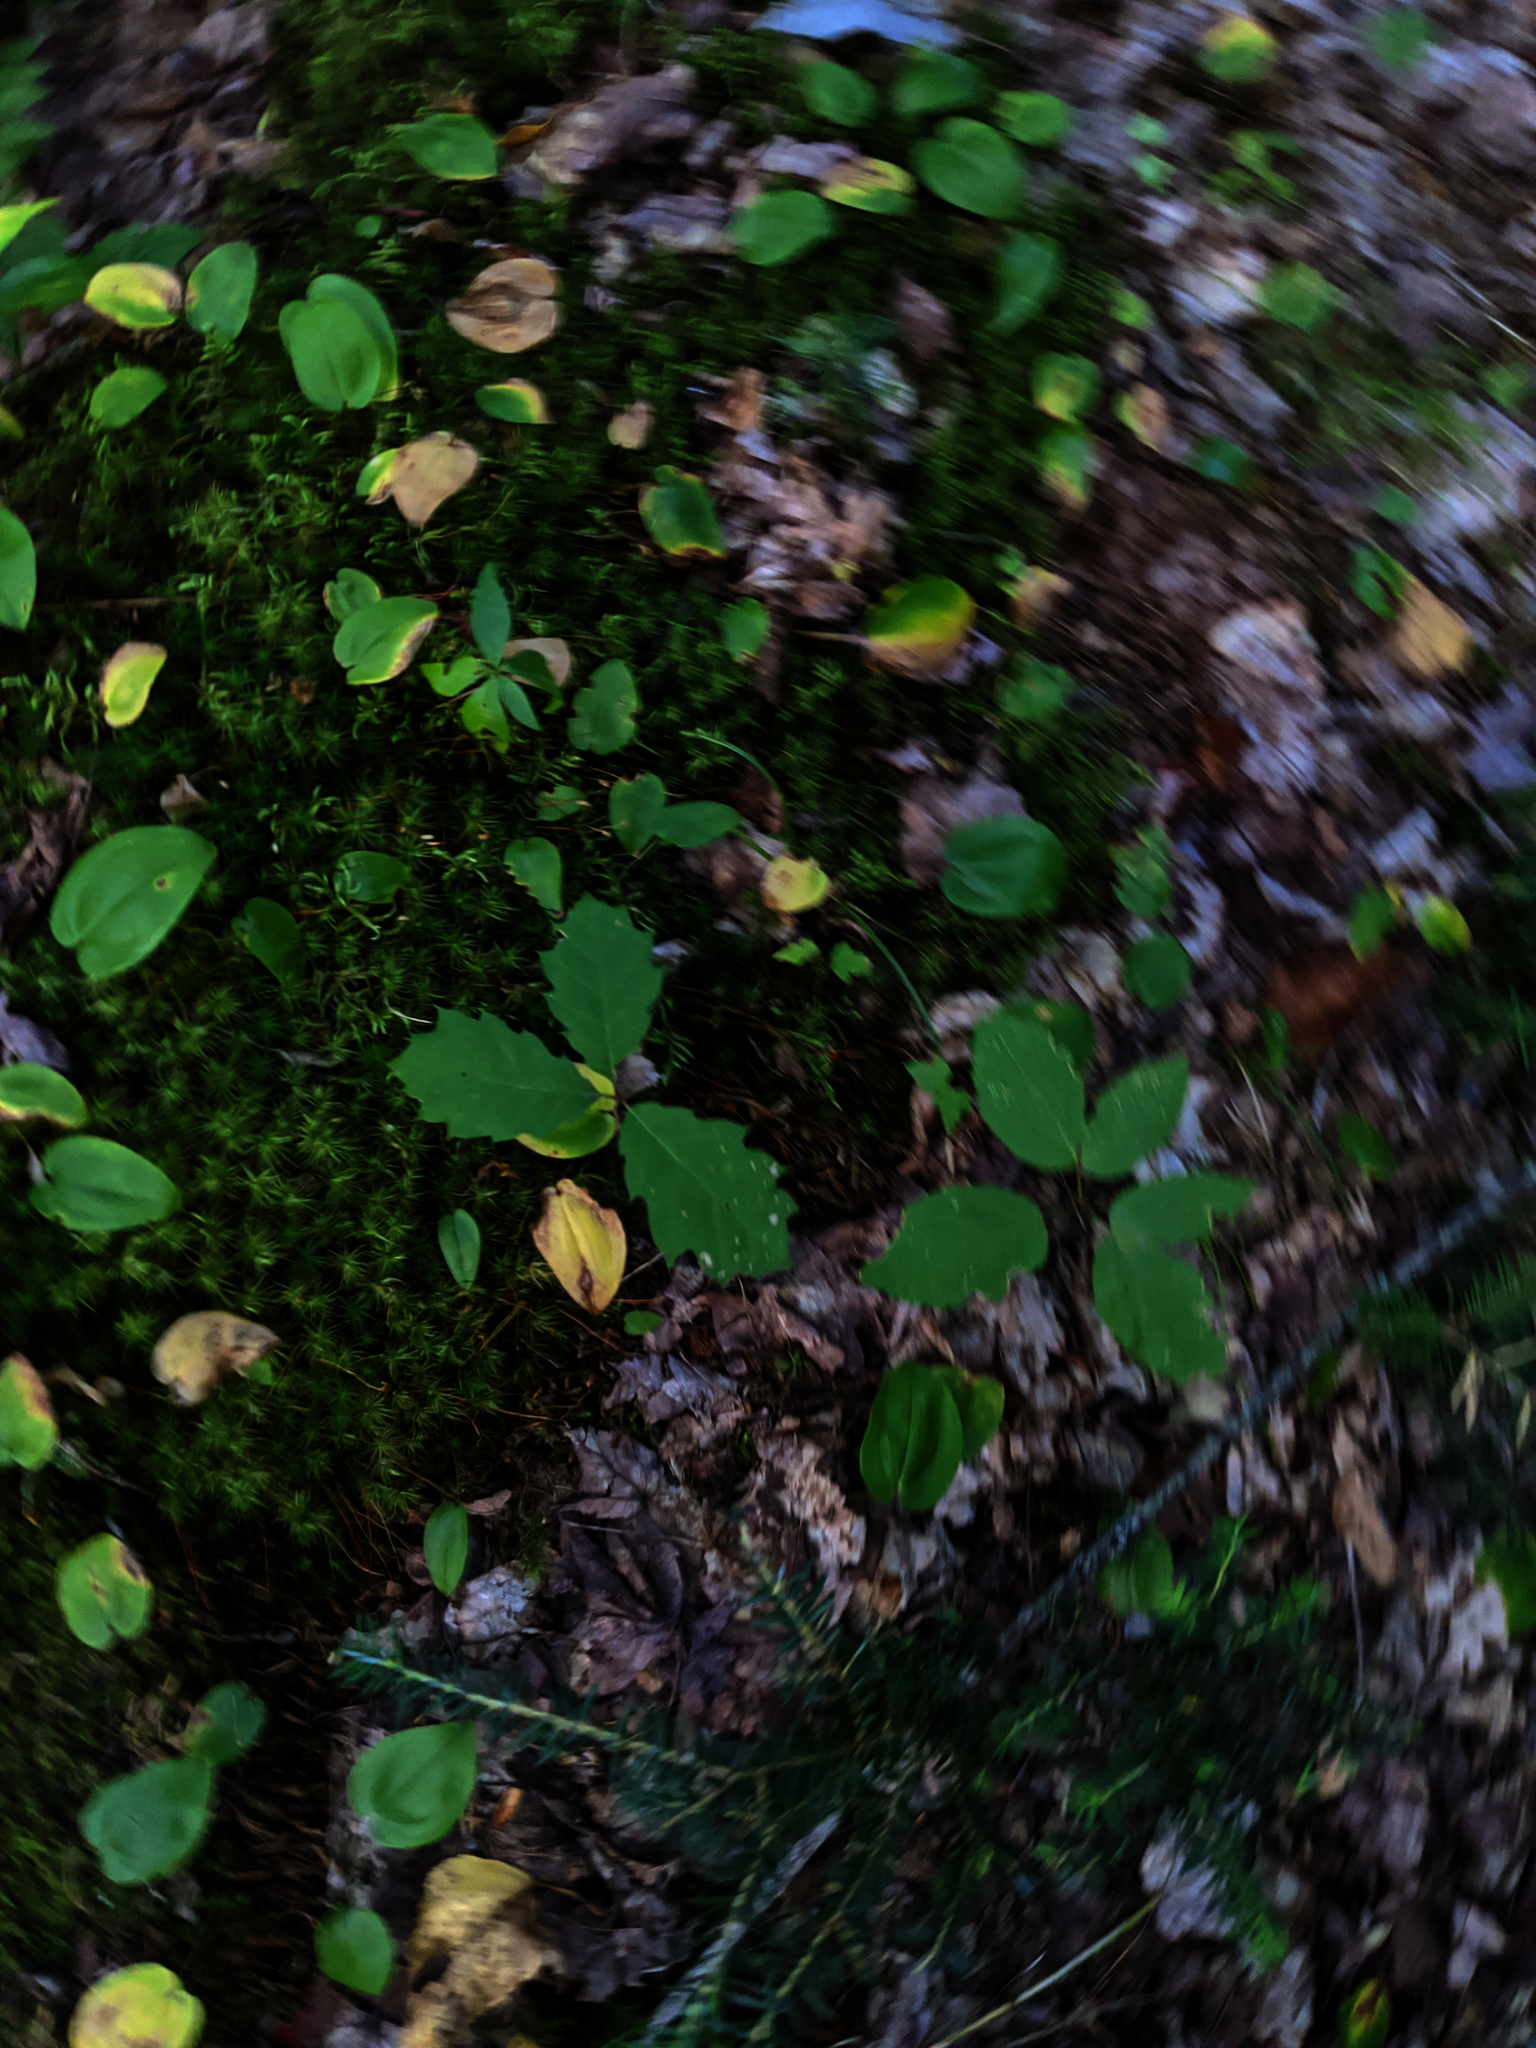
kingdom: Plantae
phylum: Tracheophyta
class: Liliopsida
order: Asparagales
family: Asparagaceae
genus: Maianthemum
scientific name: Maianthemum canadense
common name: False lily-of-the-valley
